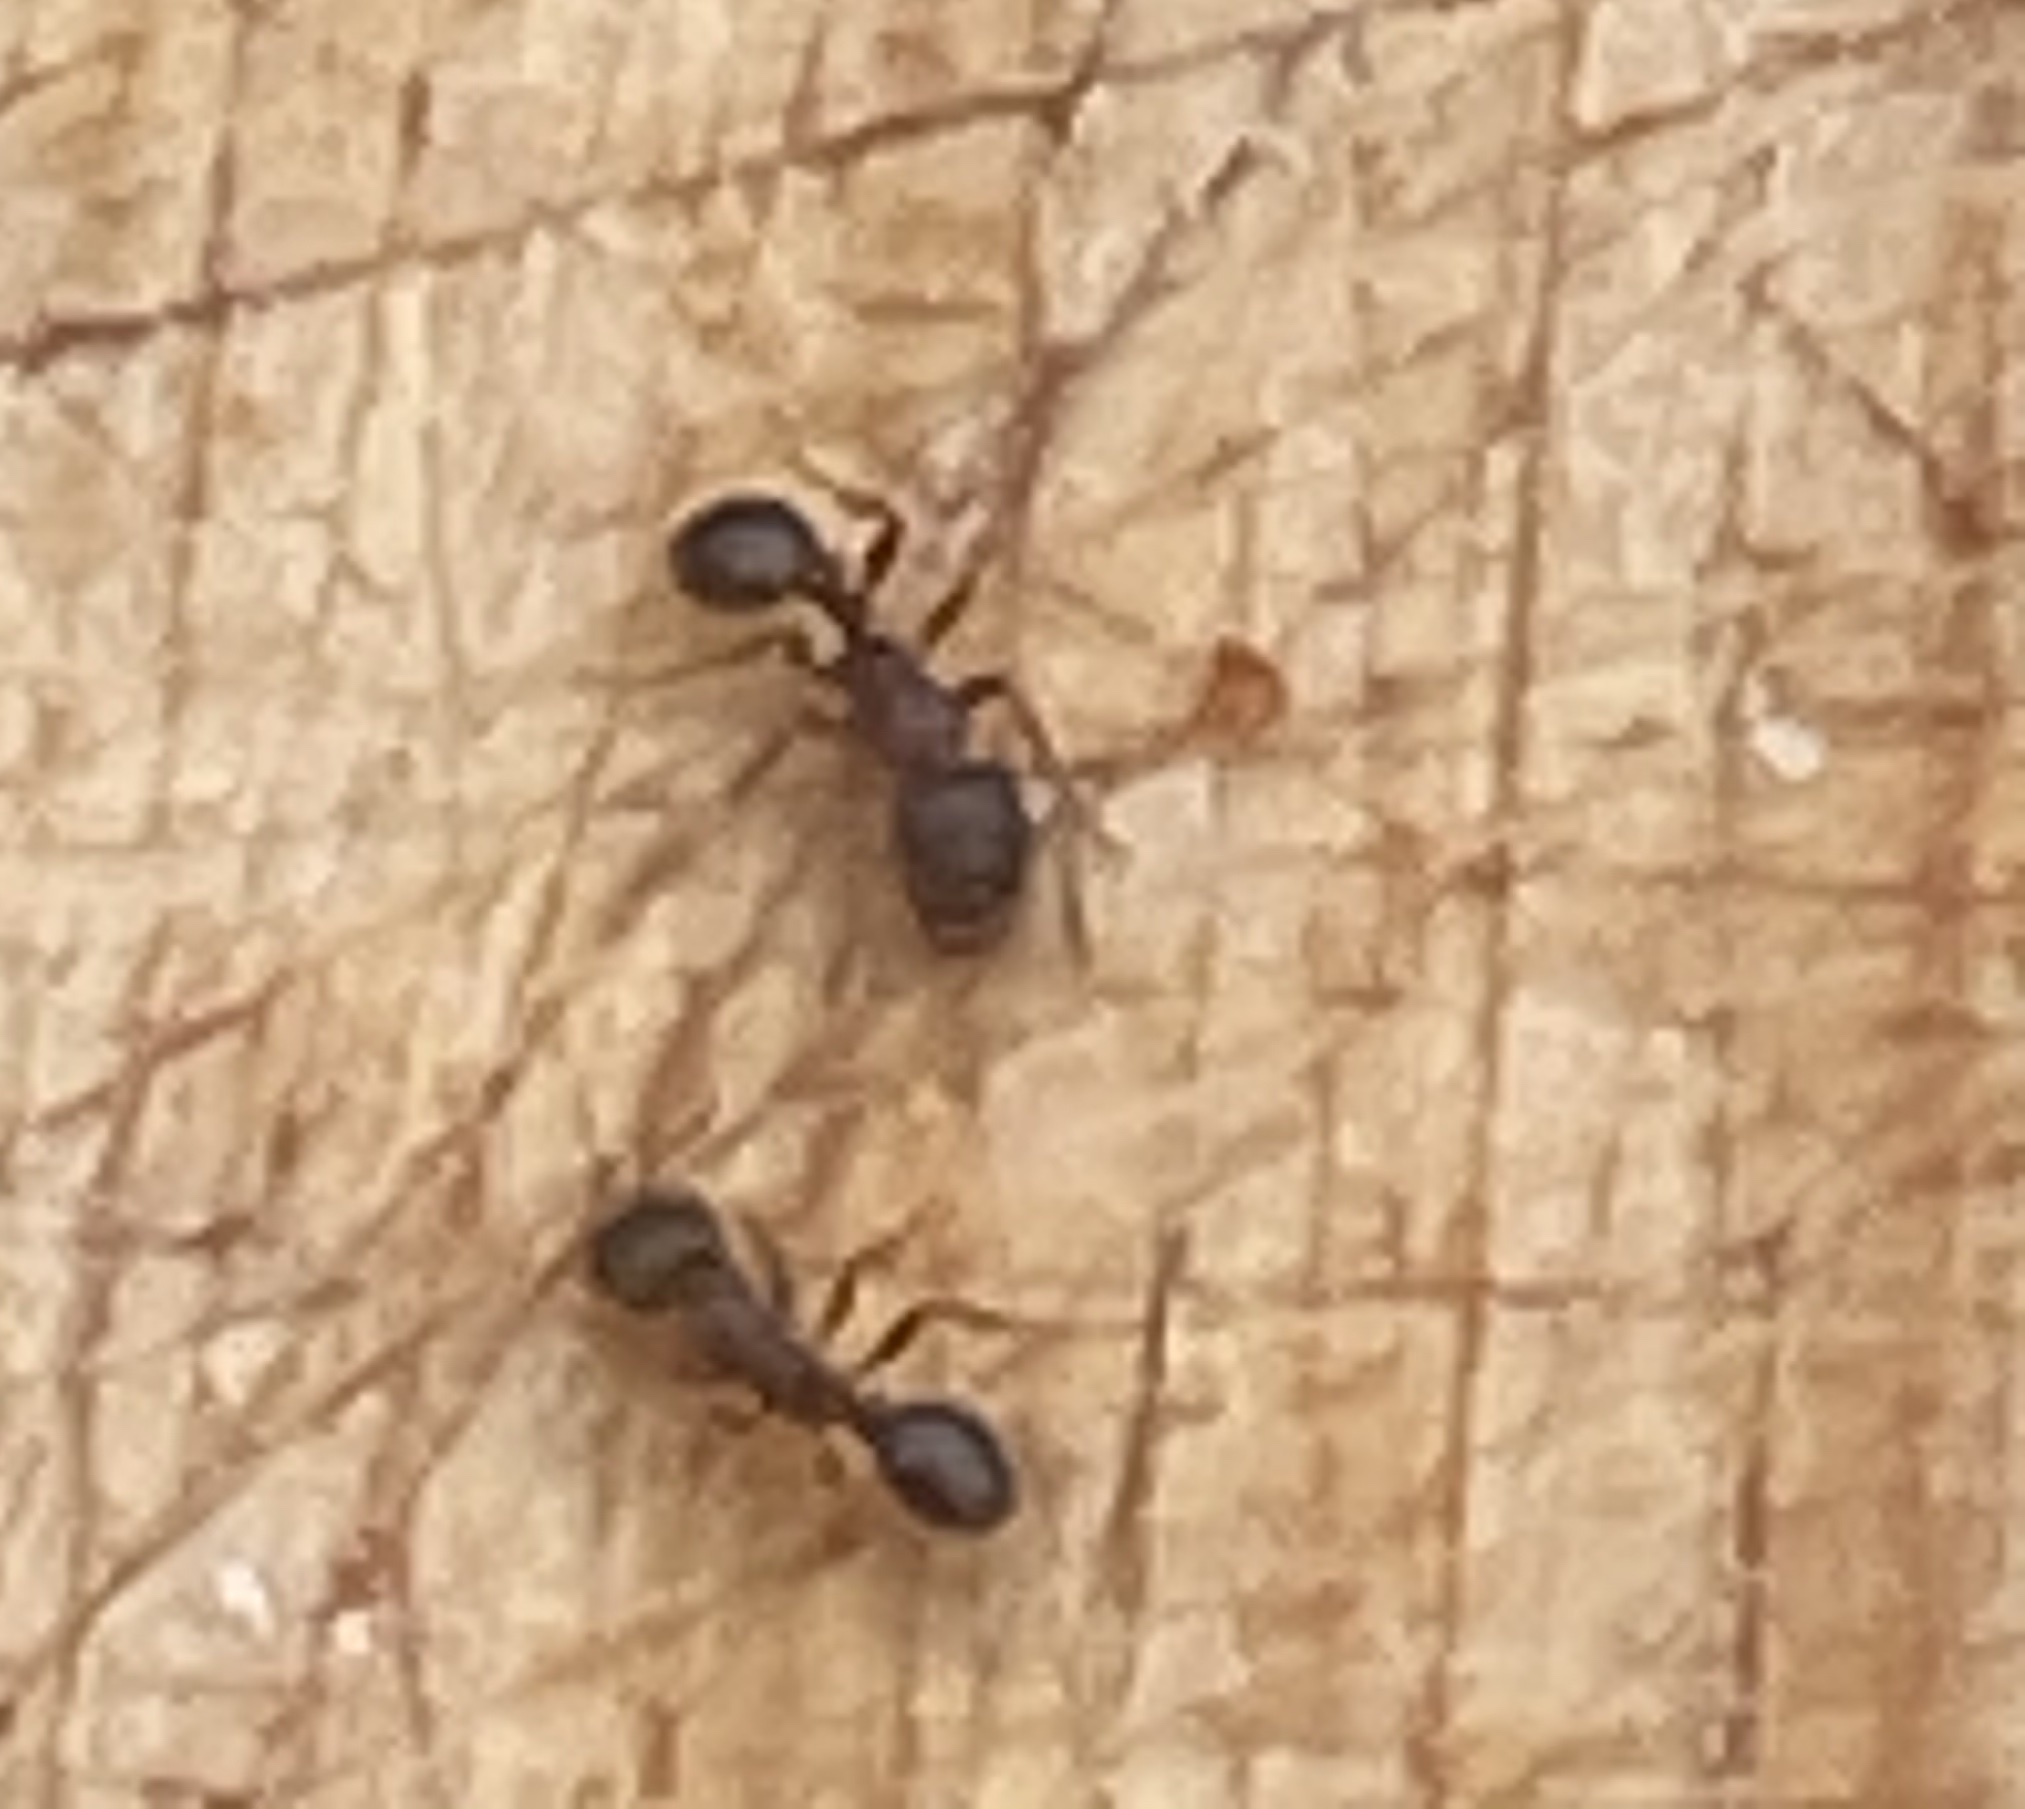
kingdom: Animalia
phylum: Arthropoda
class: Insecta
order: Hymenoptera
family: Formicidae
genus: Veromessor
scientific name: Veromessor andrei
